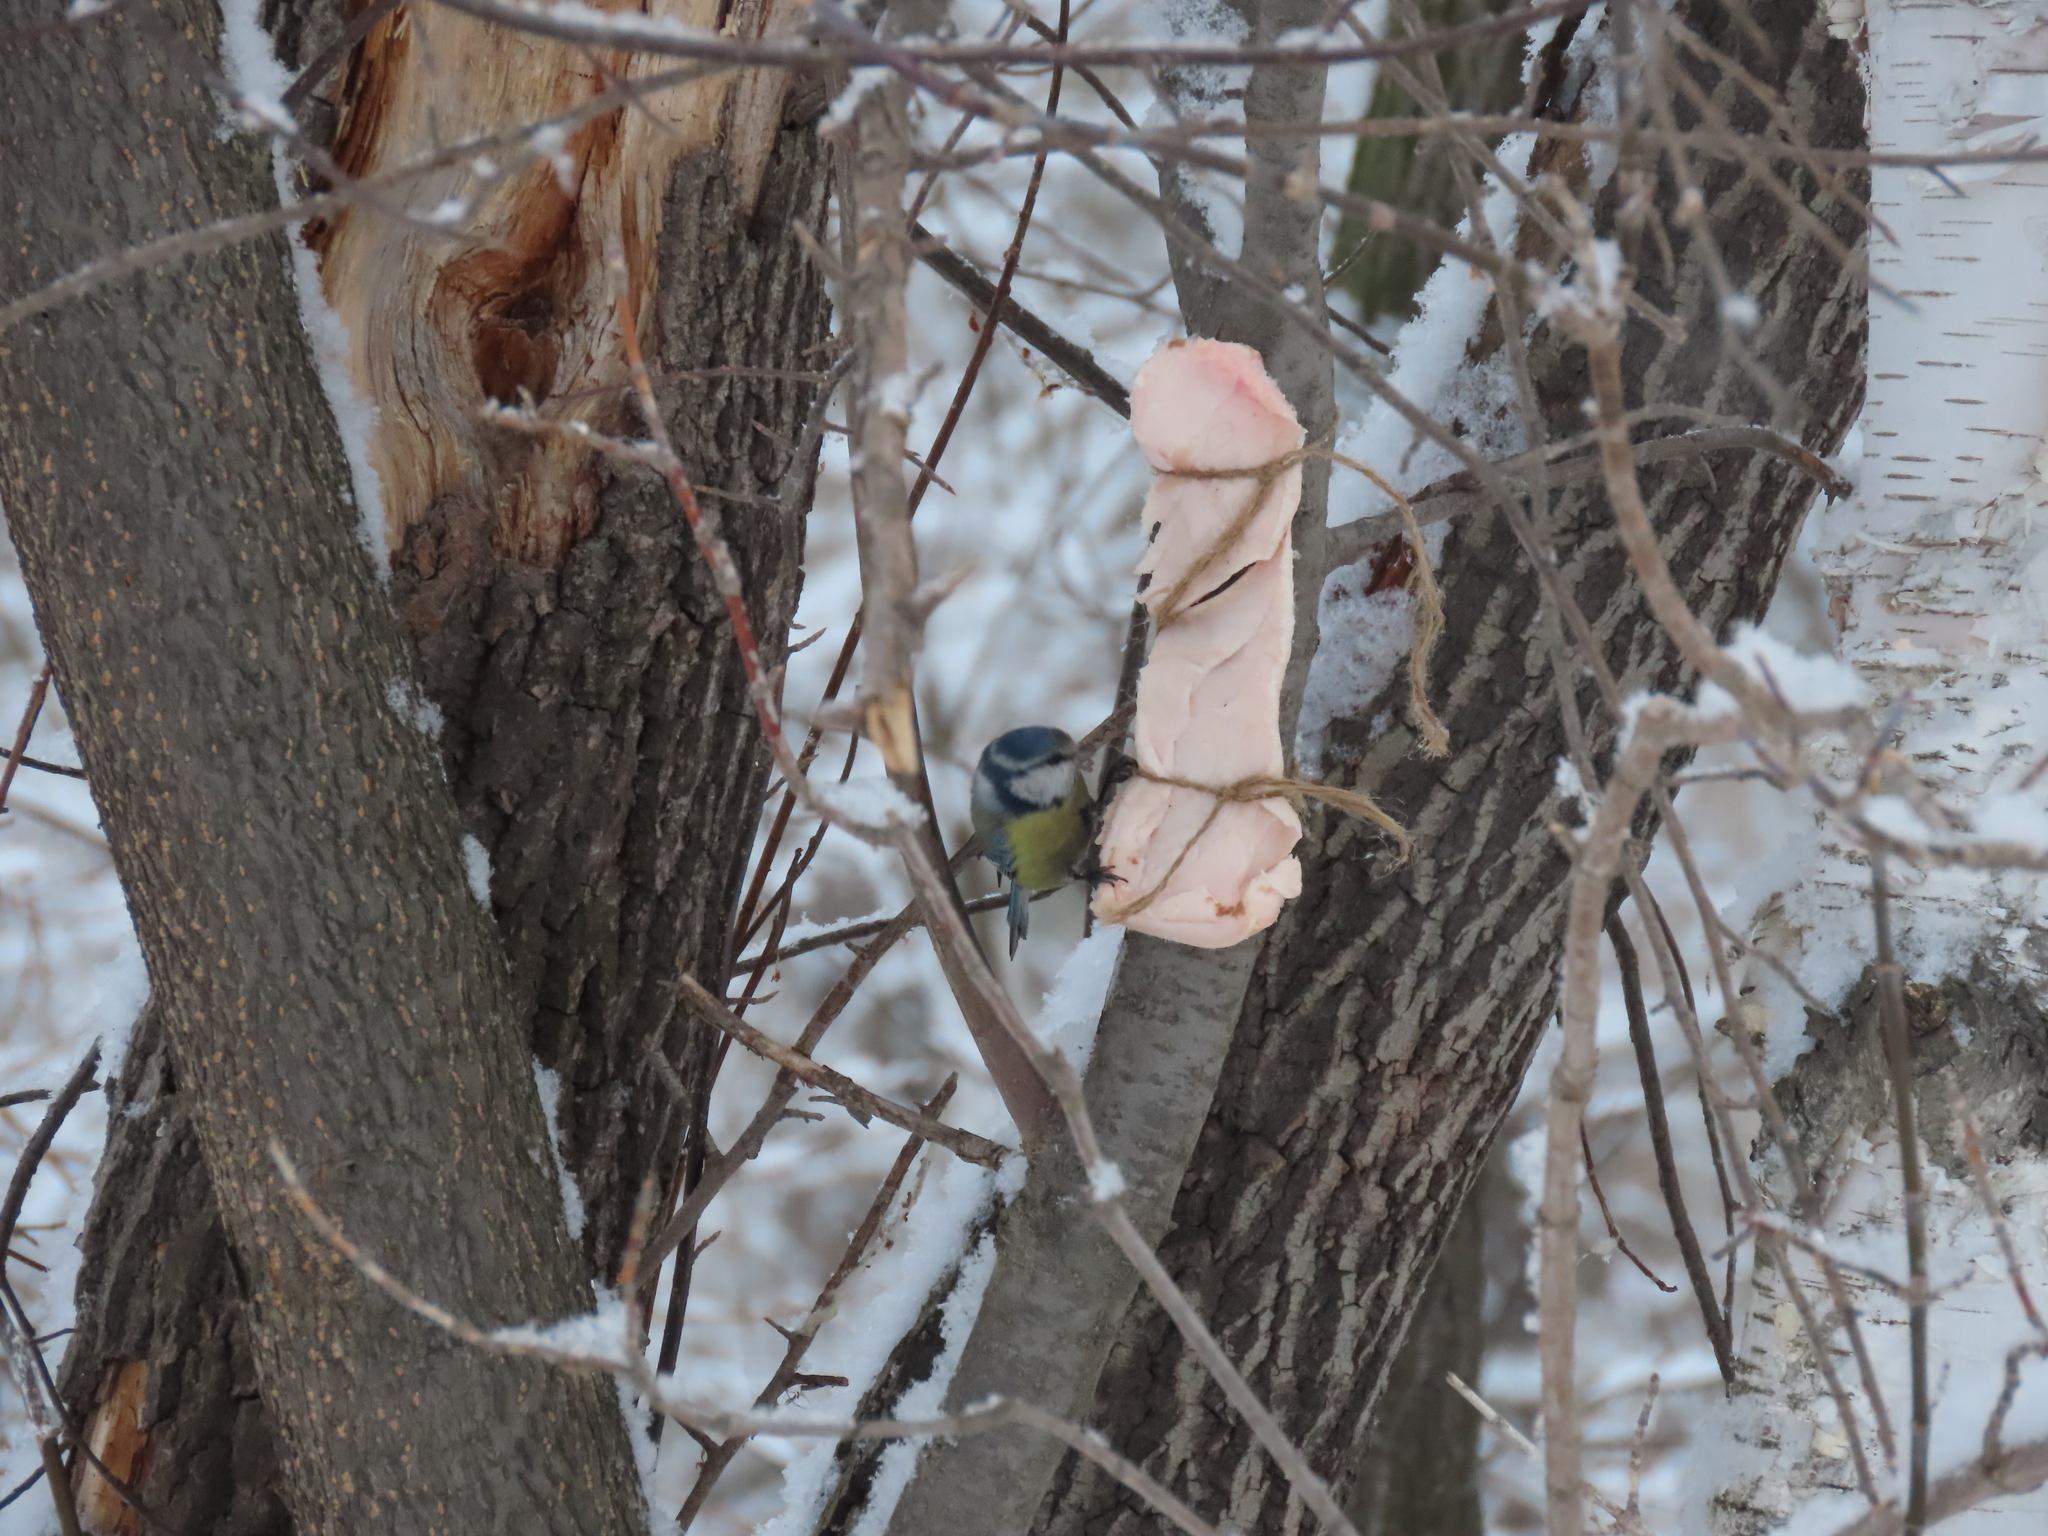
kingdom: Animalia
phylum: Chordata
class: Aves
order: Passeriformes
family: Paridae
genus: Cyanistes
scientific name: Cyanistes caeruleus
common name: Eurasian blue tit
